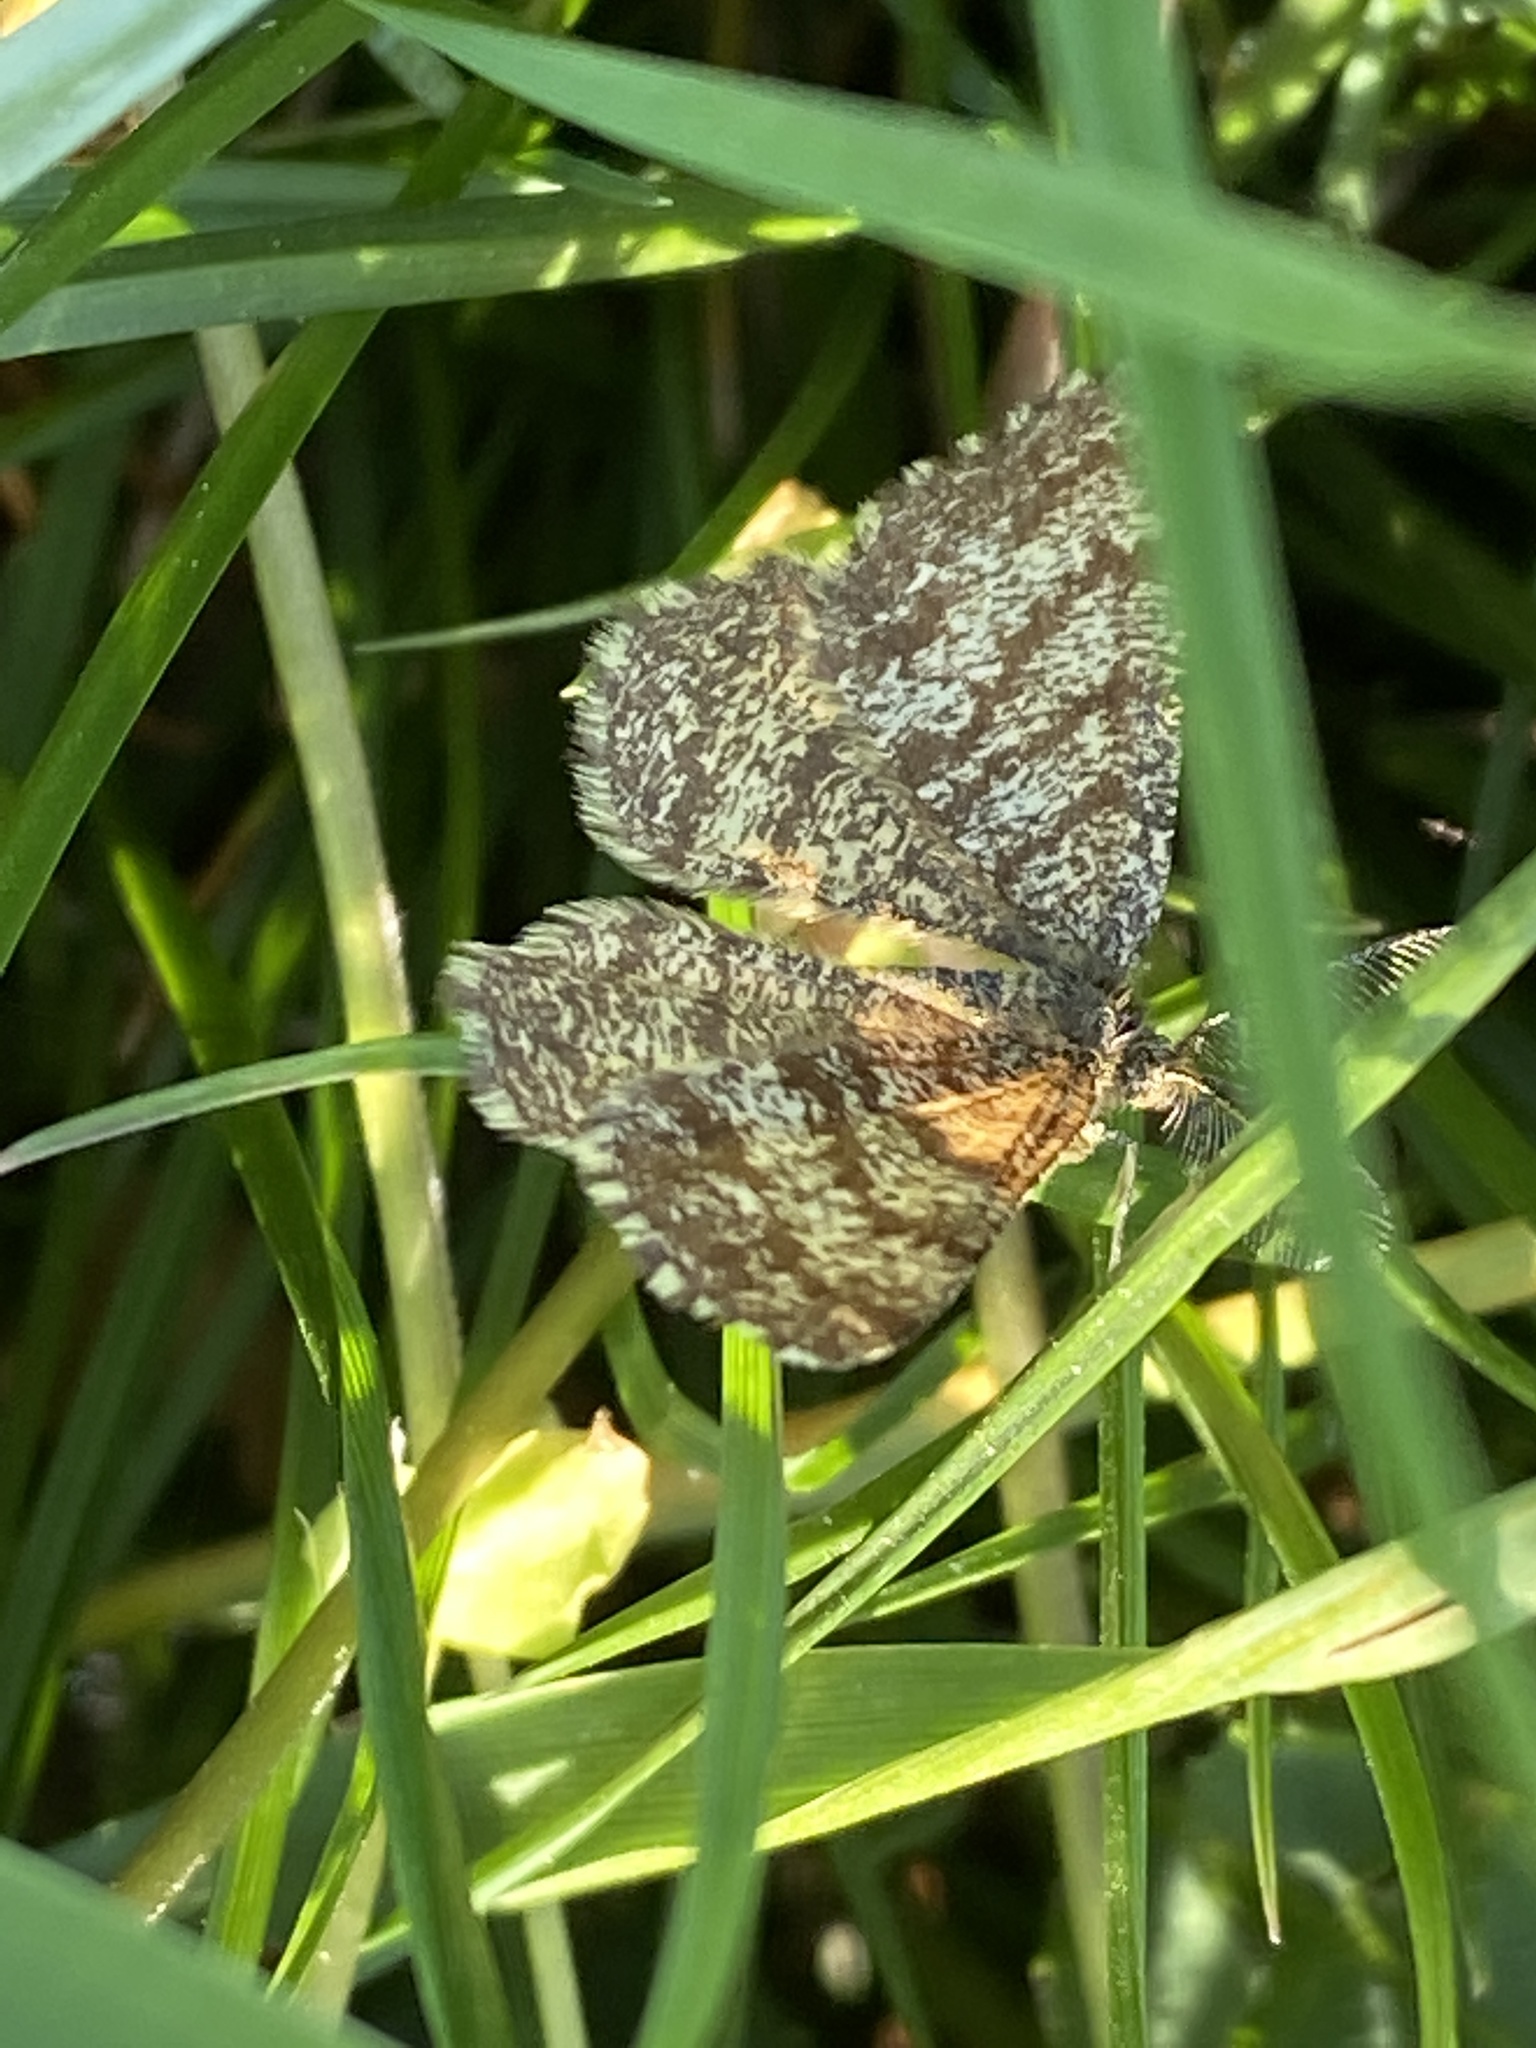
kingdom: Animalia
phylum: Arthropoda
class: Insecta
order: Lepidoptera
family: Geometridae
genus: Ematurga
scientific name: Ematurga atomaria
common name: Common heath
